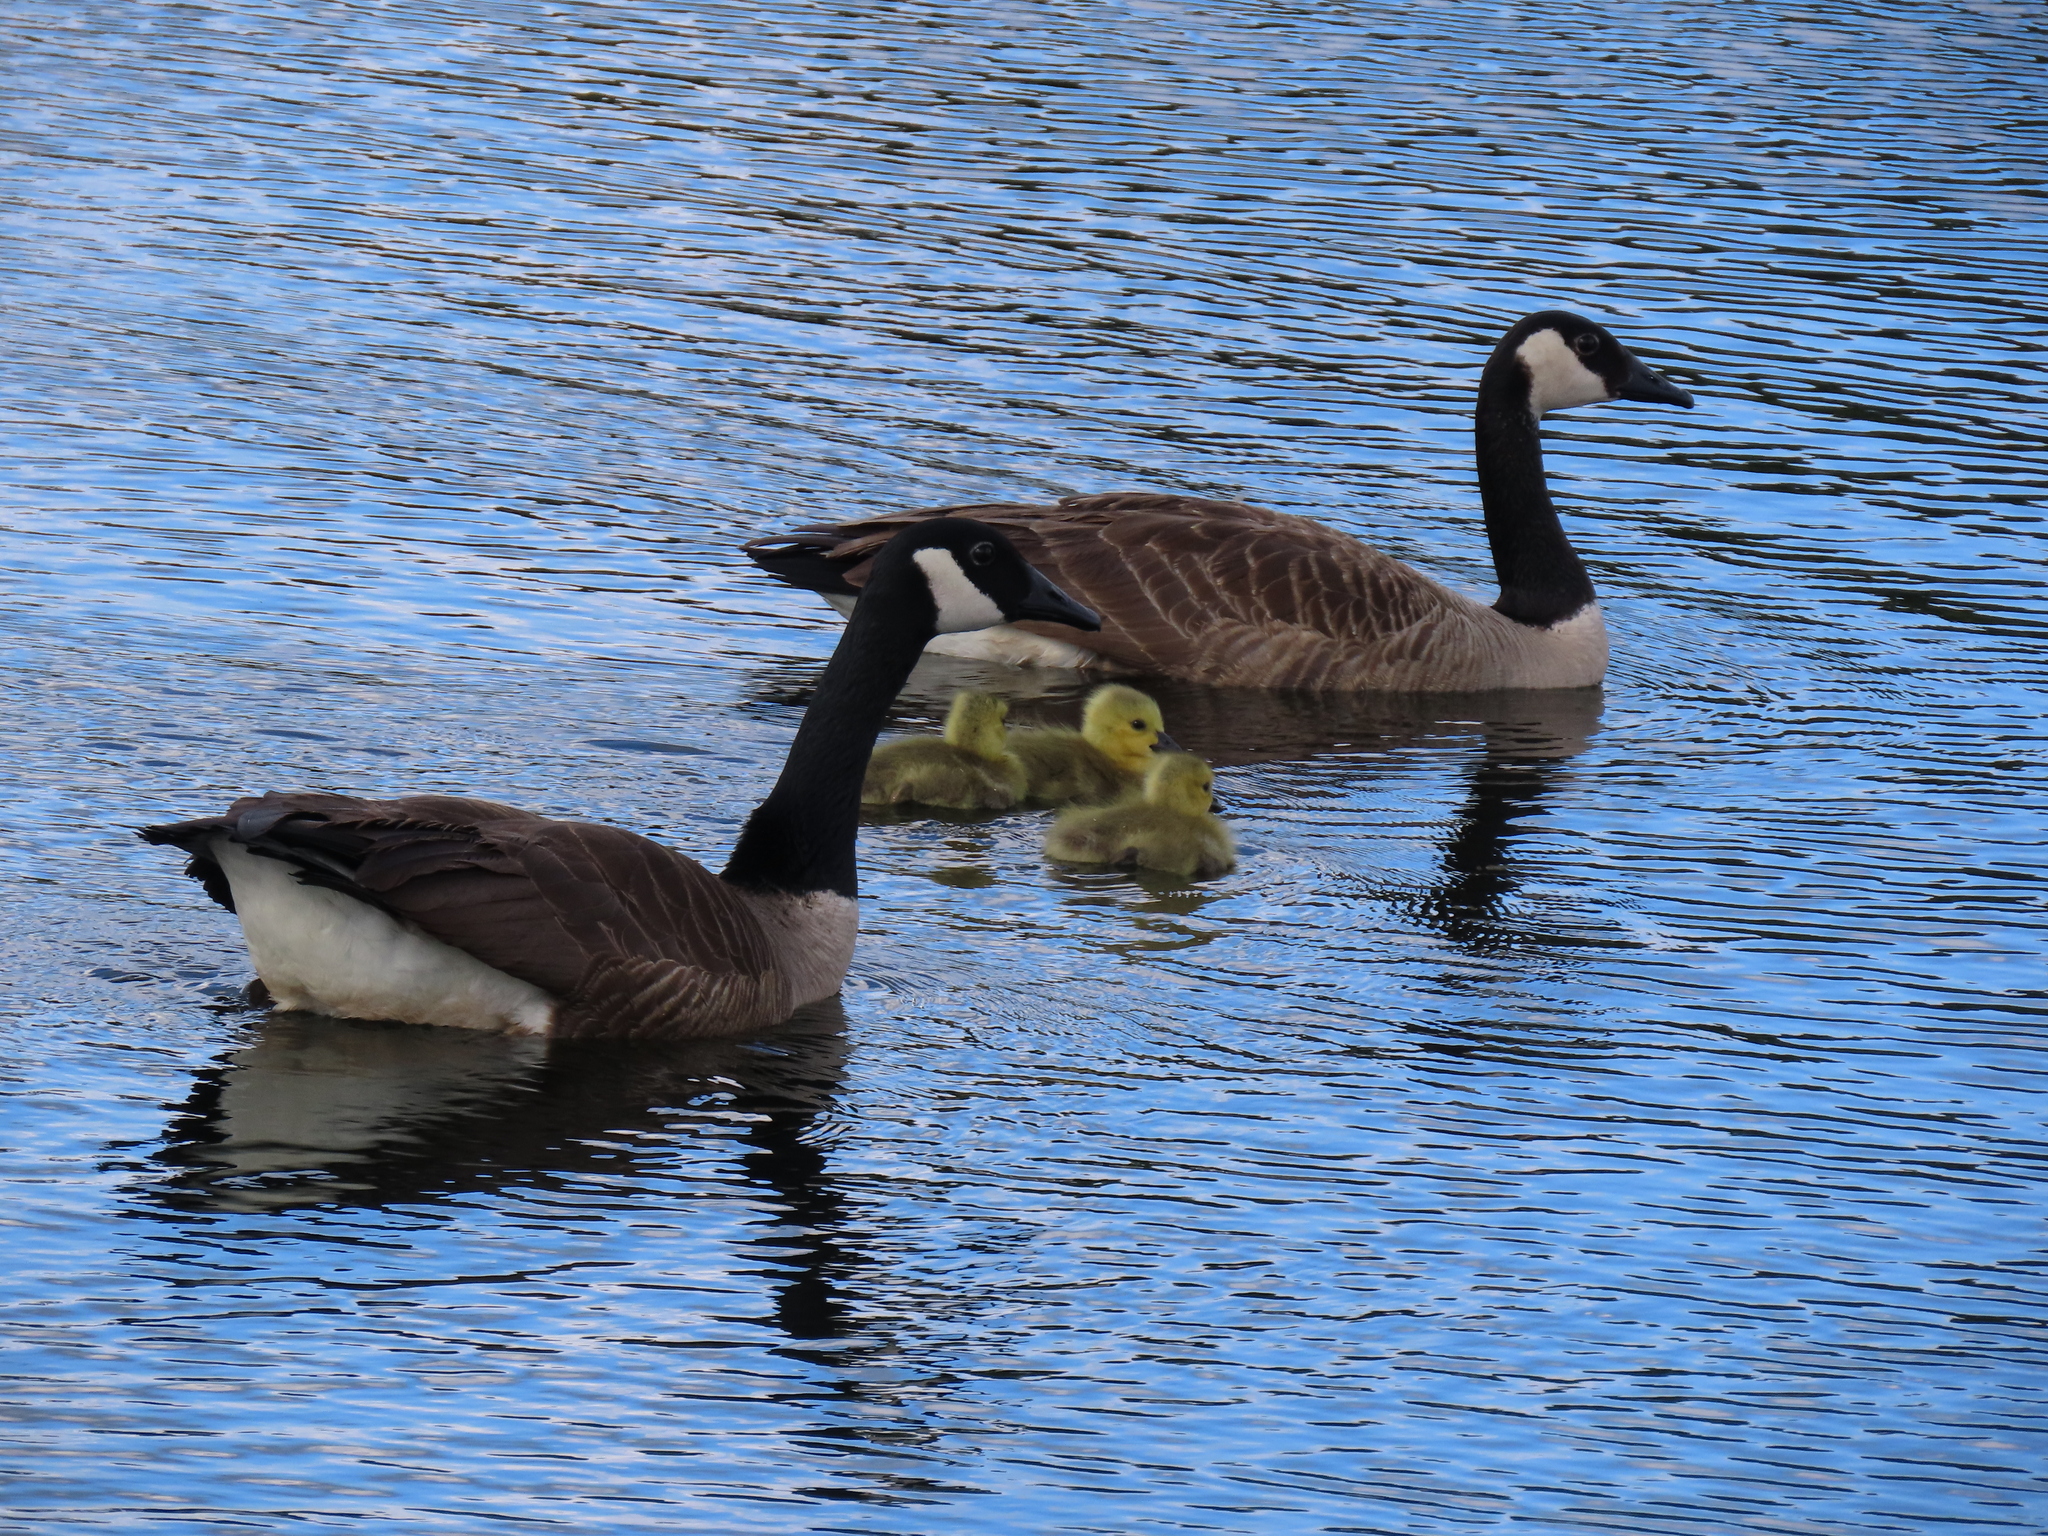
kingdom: Animalia
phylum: Chordata
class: Aves
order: Anseriformes
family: Anatidae
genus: Branta
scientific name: Branta canadensis
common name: Canada goose
